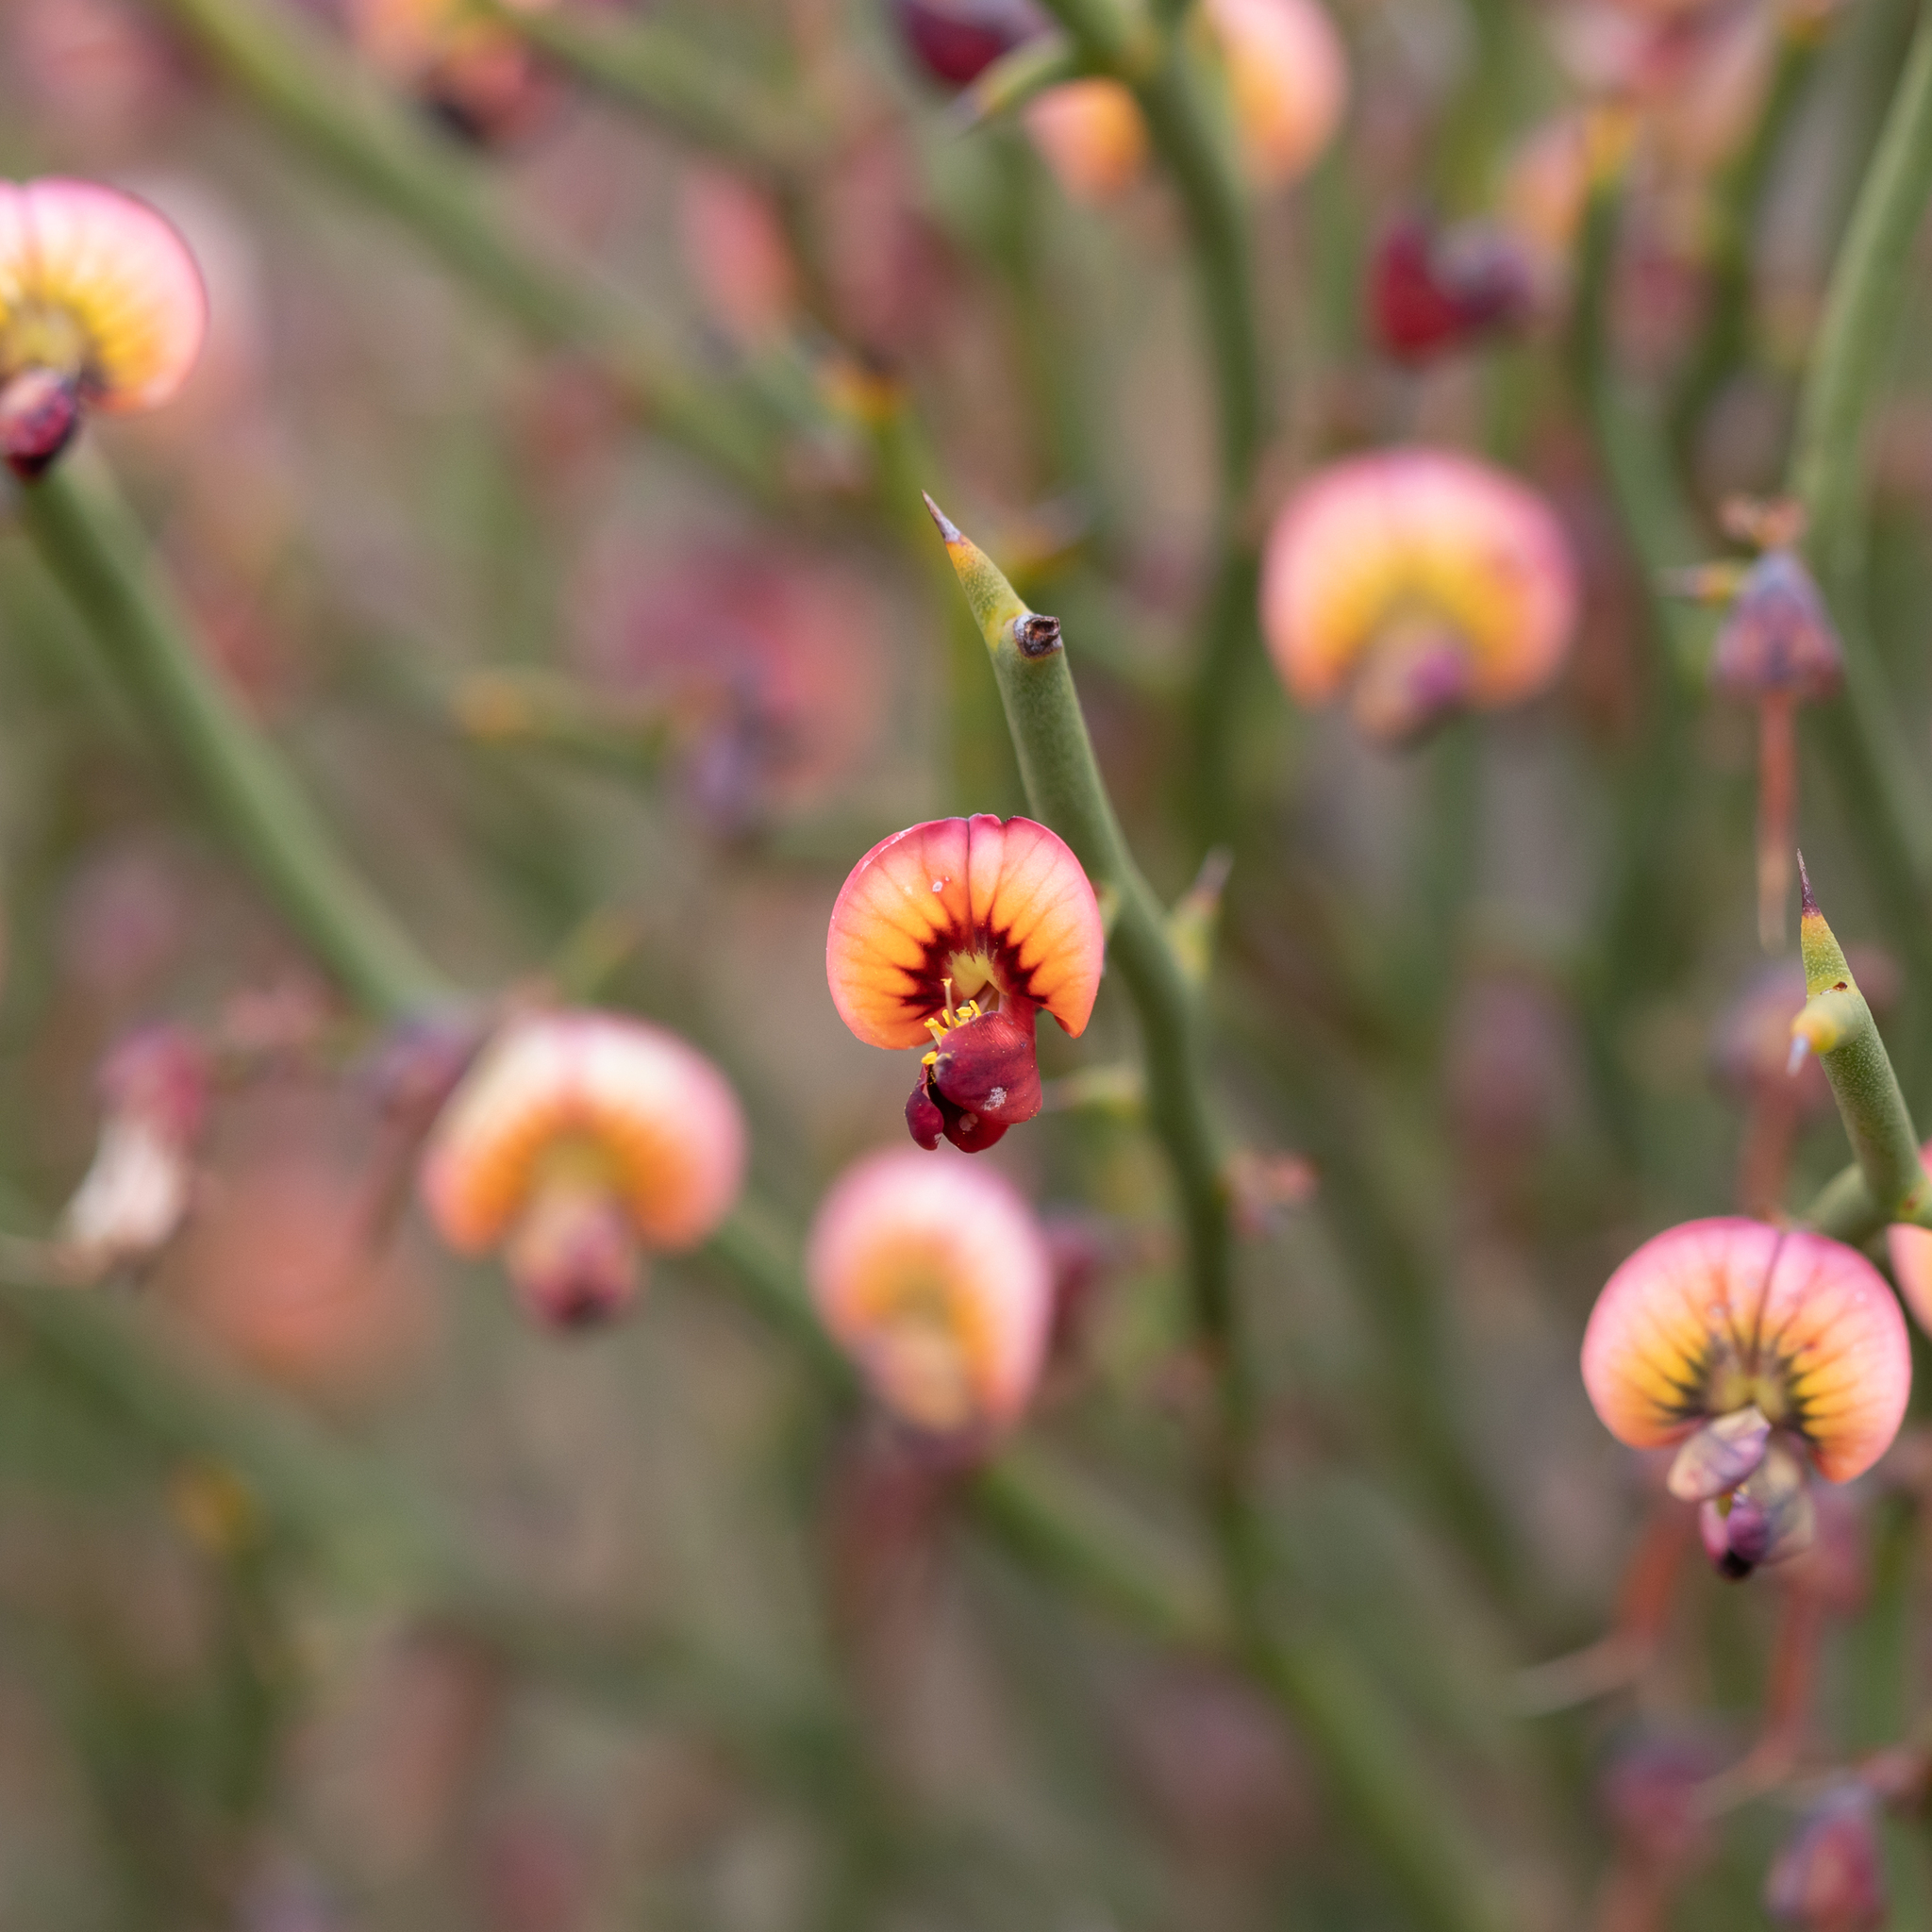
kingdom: Plantae
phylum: Tracheophyta
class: Magnoliopsida
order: Fabales
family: Fabaceae
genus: Daviesia
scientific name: Daviesia brevifolia
